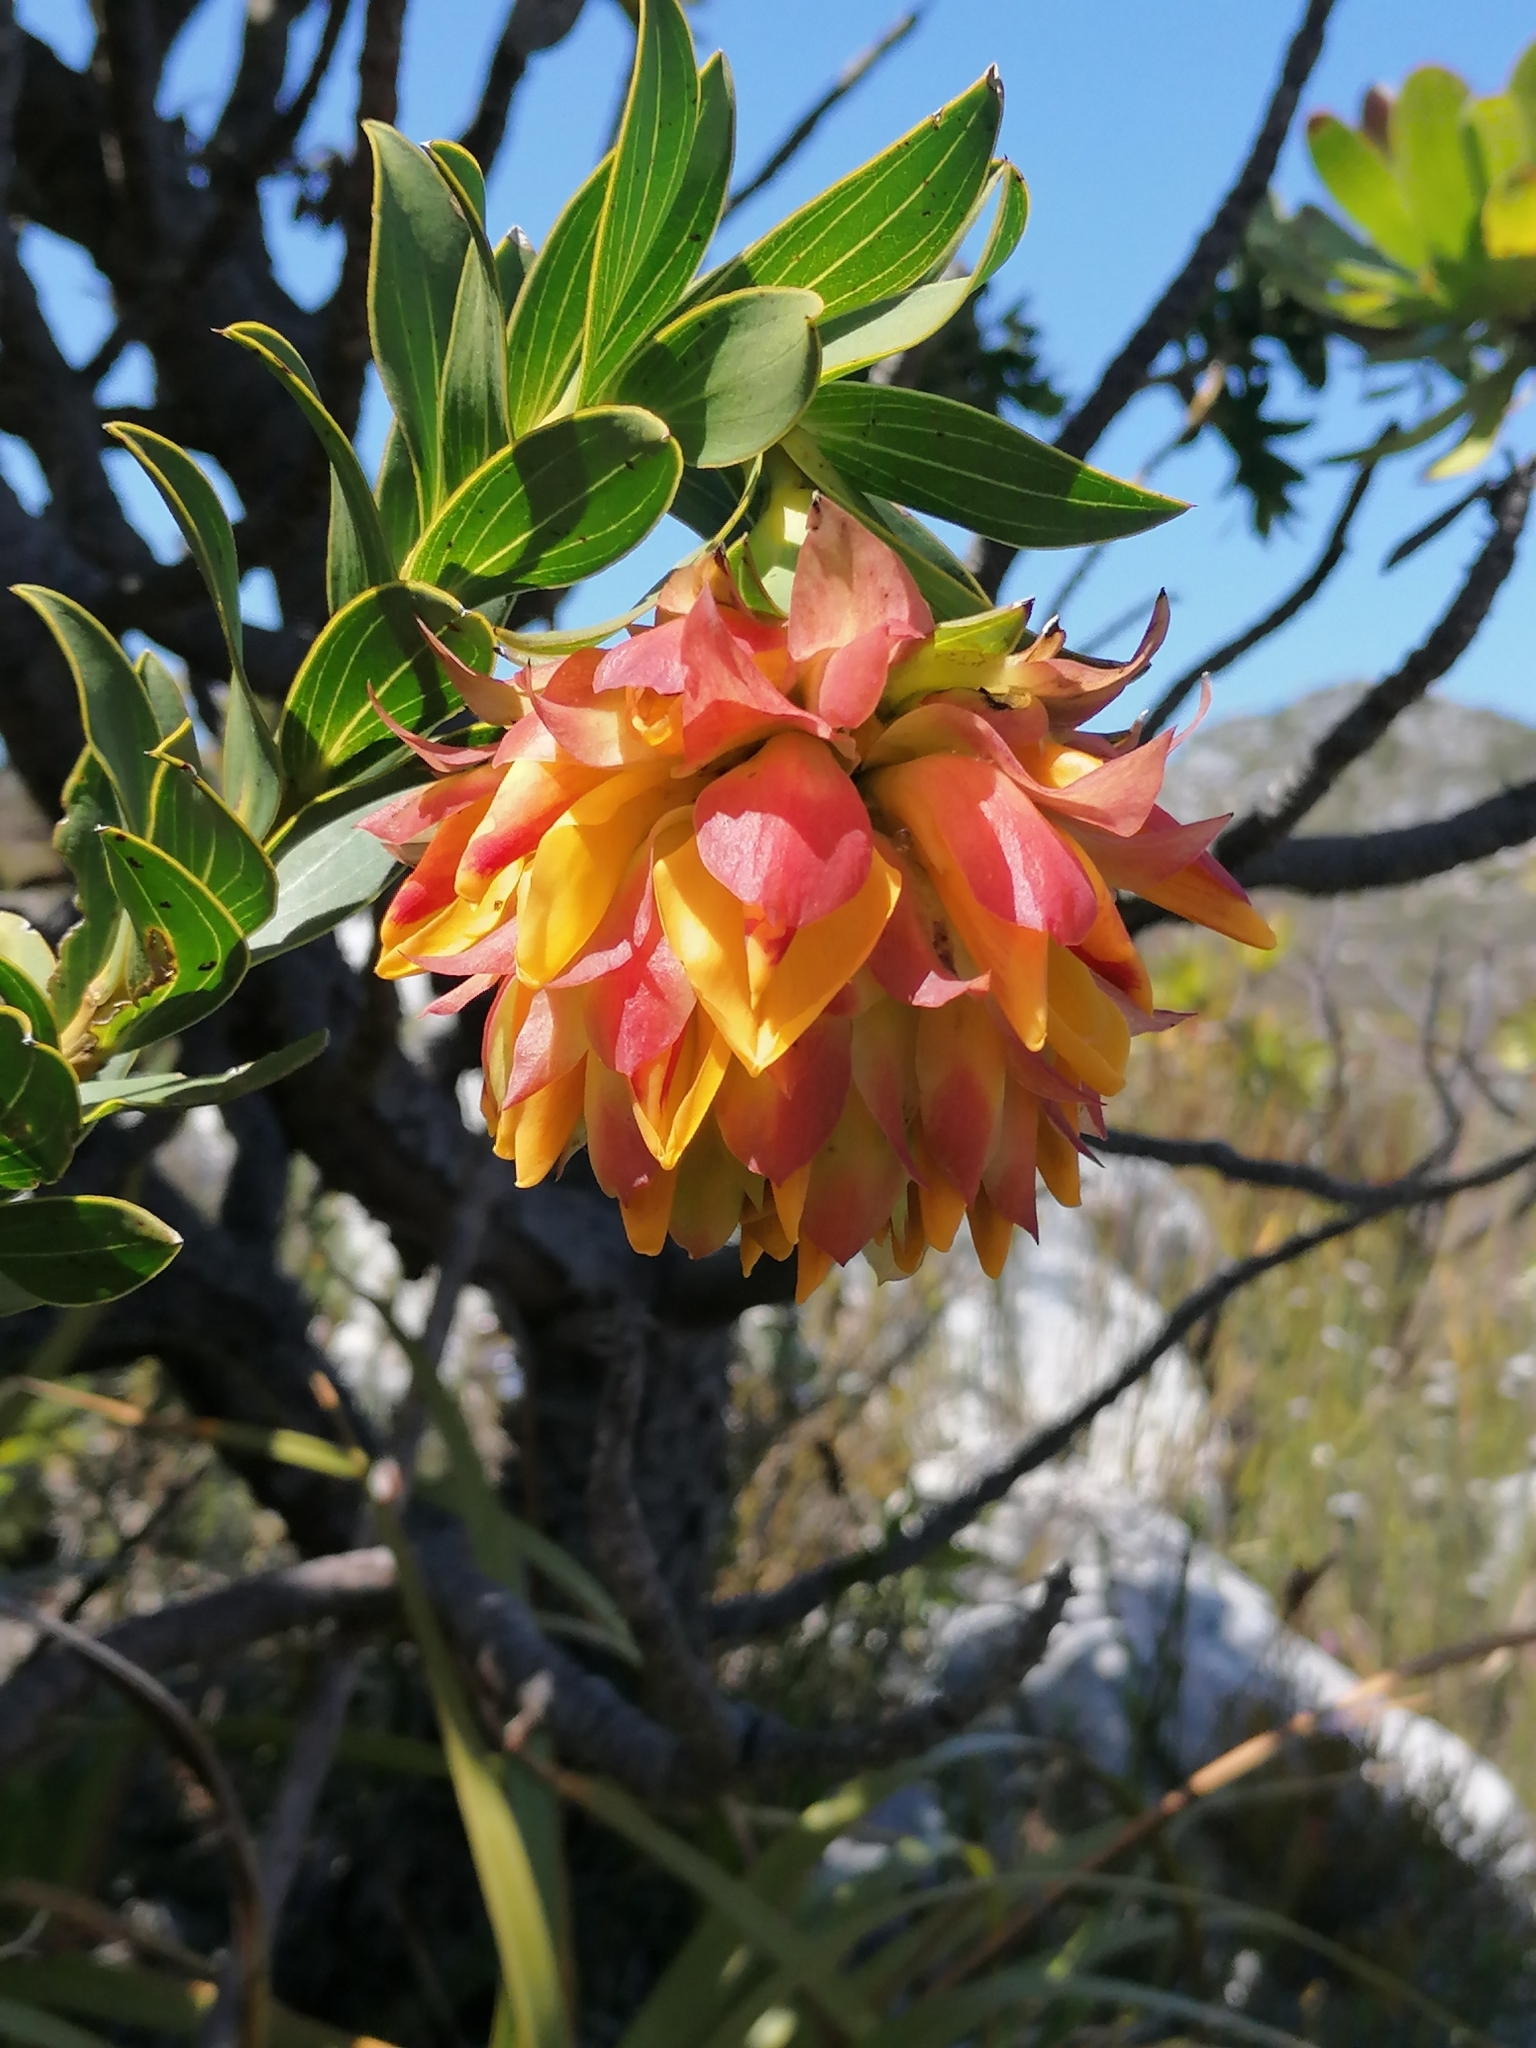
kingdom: Plantae
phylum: Tracheophyta
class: Magnoliopsida
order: Fabales
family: Fabaceae
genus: Liparia
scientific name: Liparia splendens
